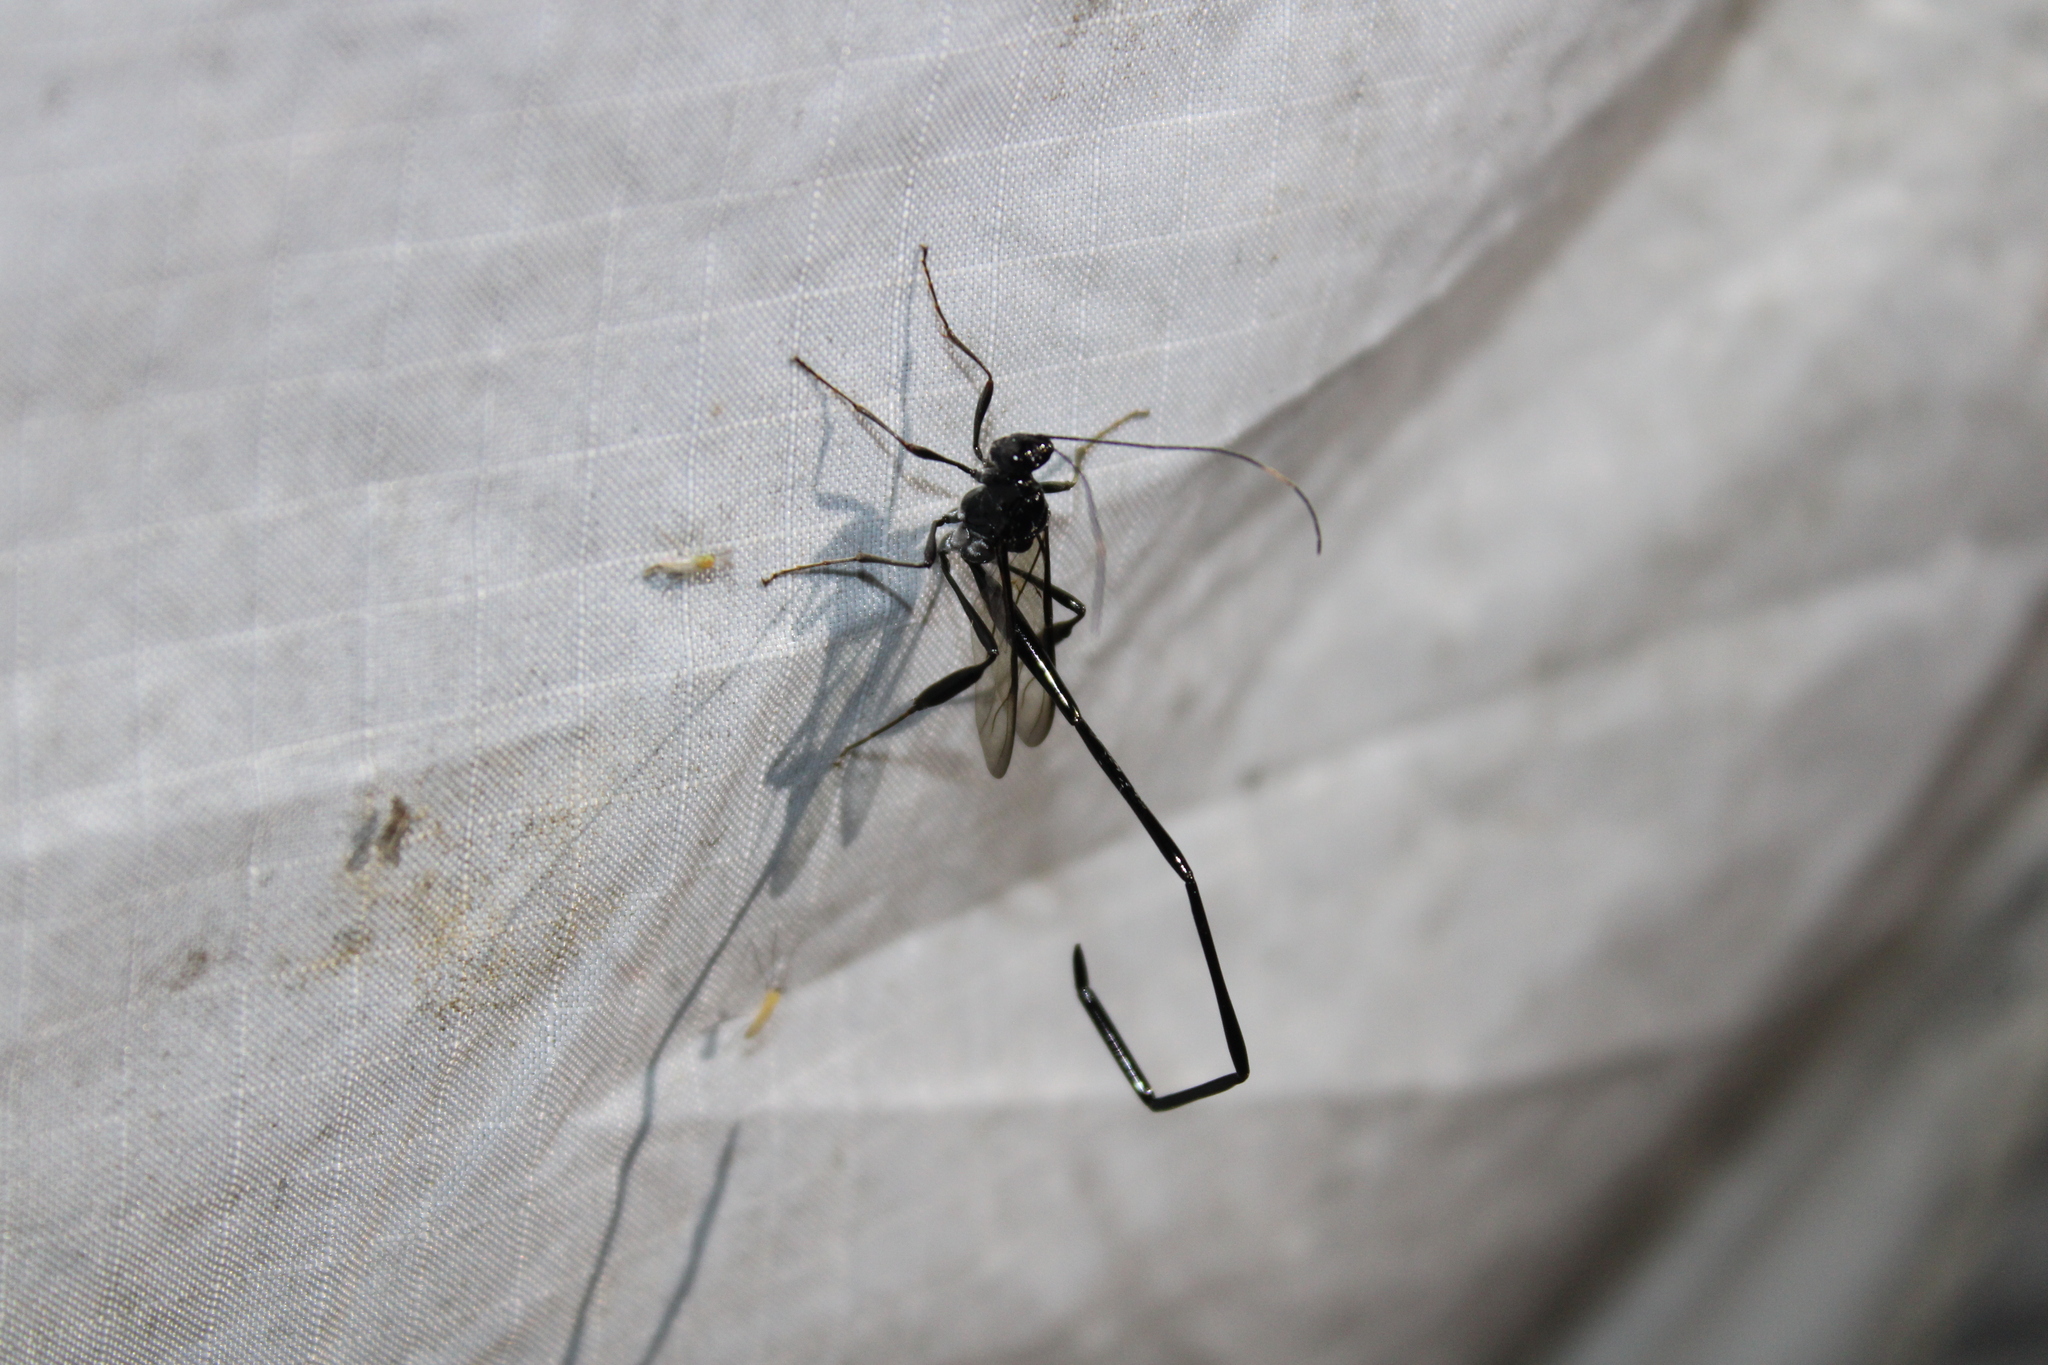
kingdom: Animalia
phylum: Arthropoda
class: Insecta
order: Hymenoptera
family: Pelecinidae
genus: Pelecinus
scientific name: Pelecinus polyturator
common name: American pelecinid wasp
